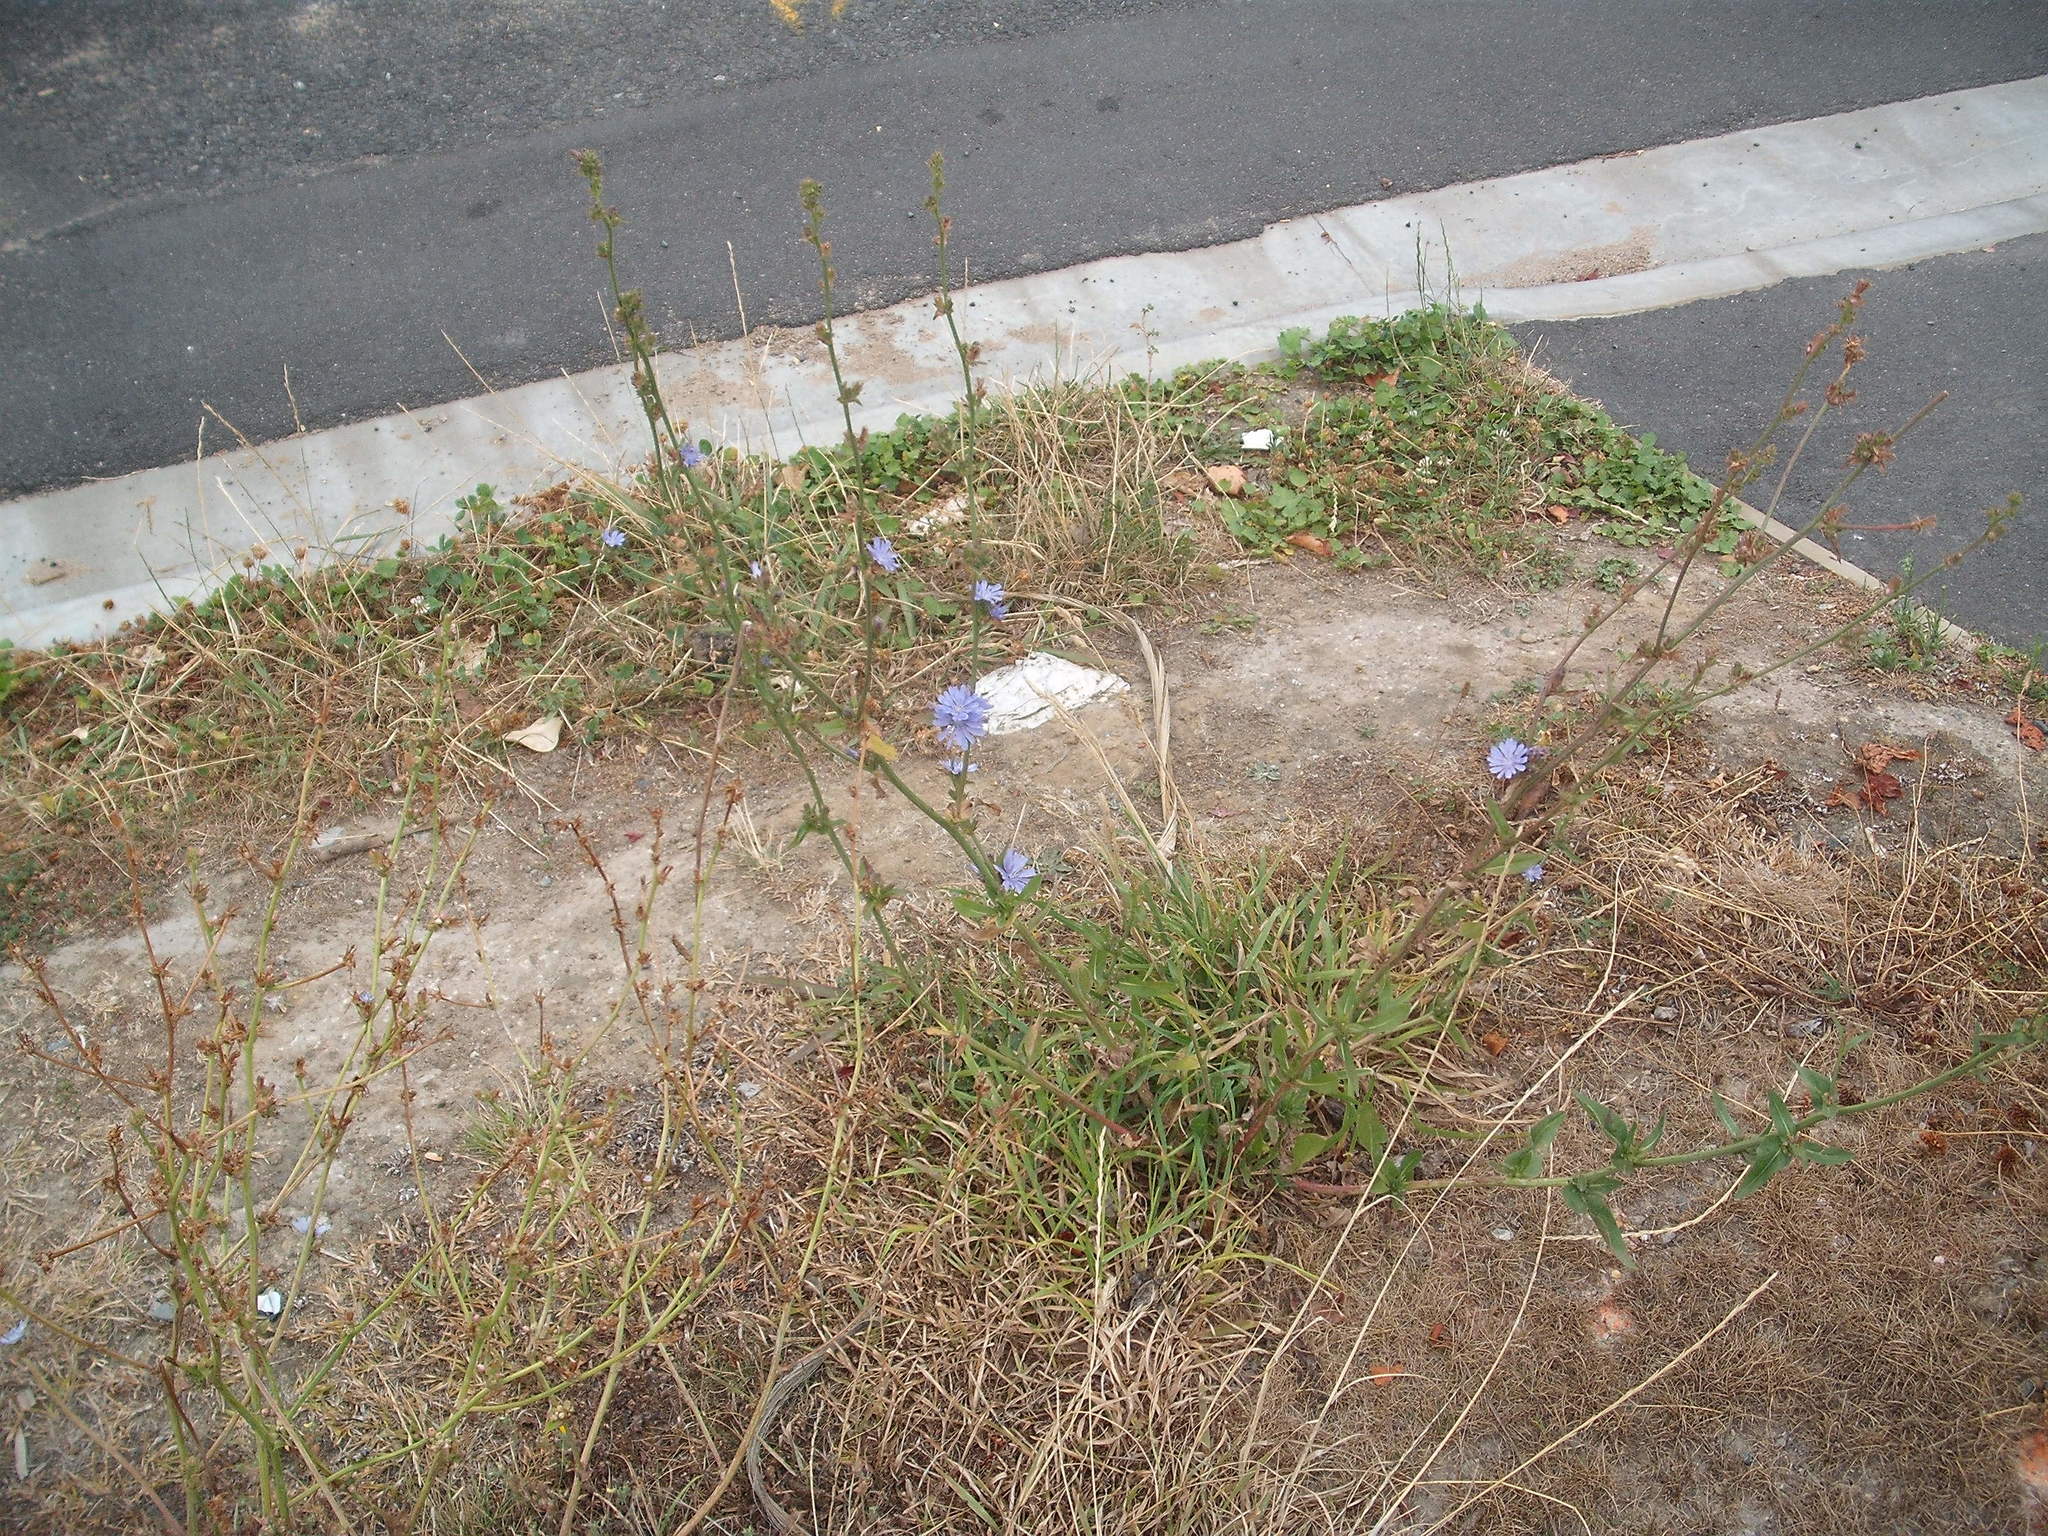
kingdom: Plantae
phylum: Tracheophyta
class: Magnoliopsida
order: Asterales
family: Asteraceae
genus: Cichorium
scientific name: Cichorium intybus
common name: Chicory
